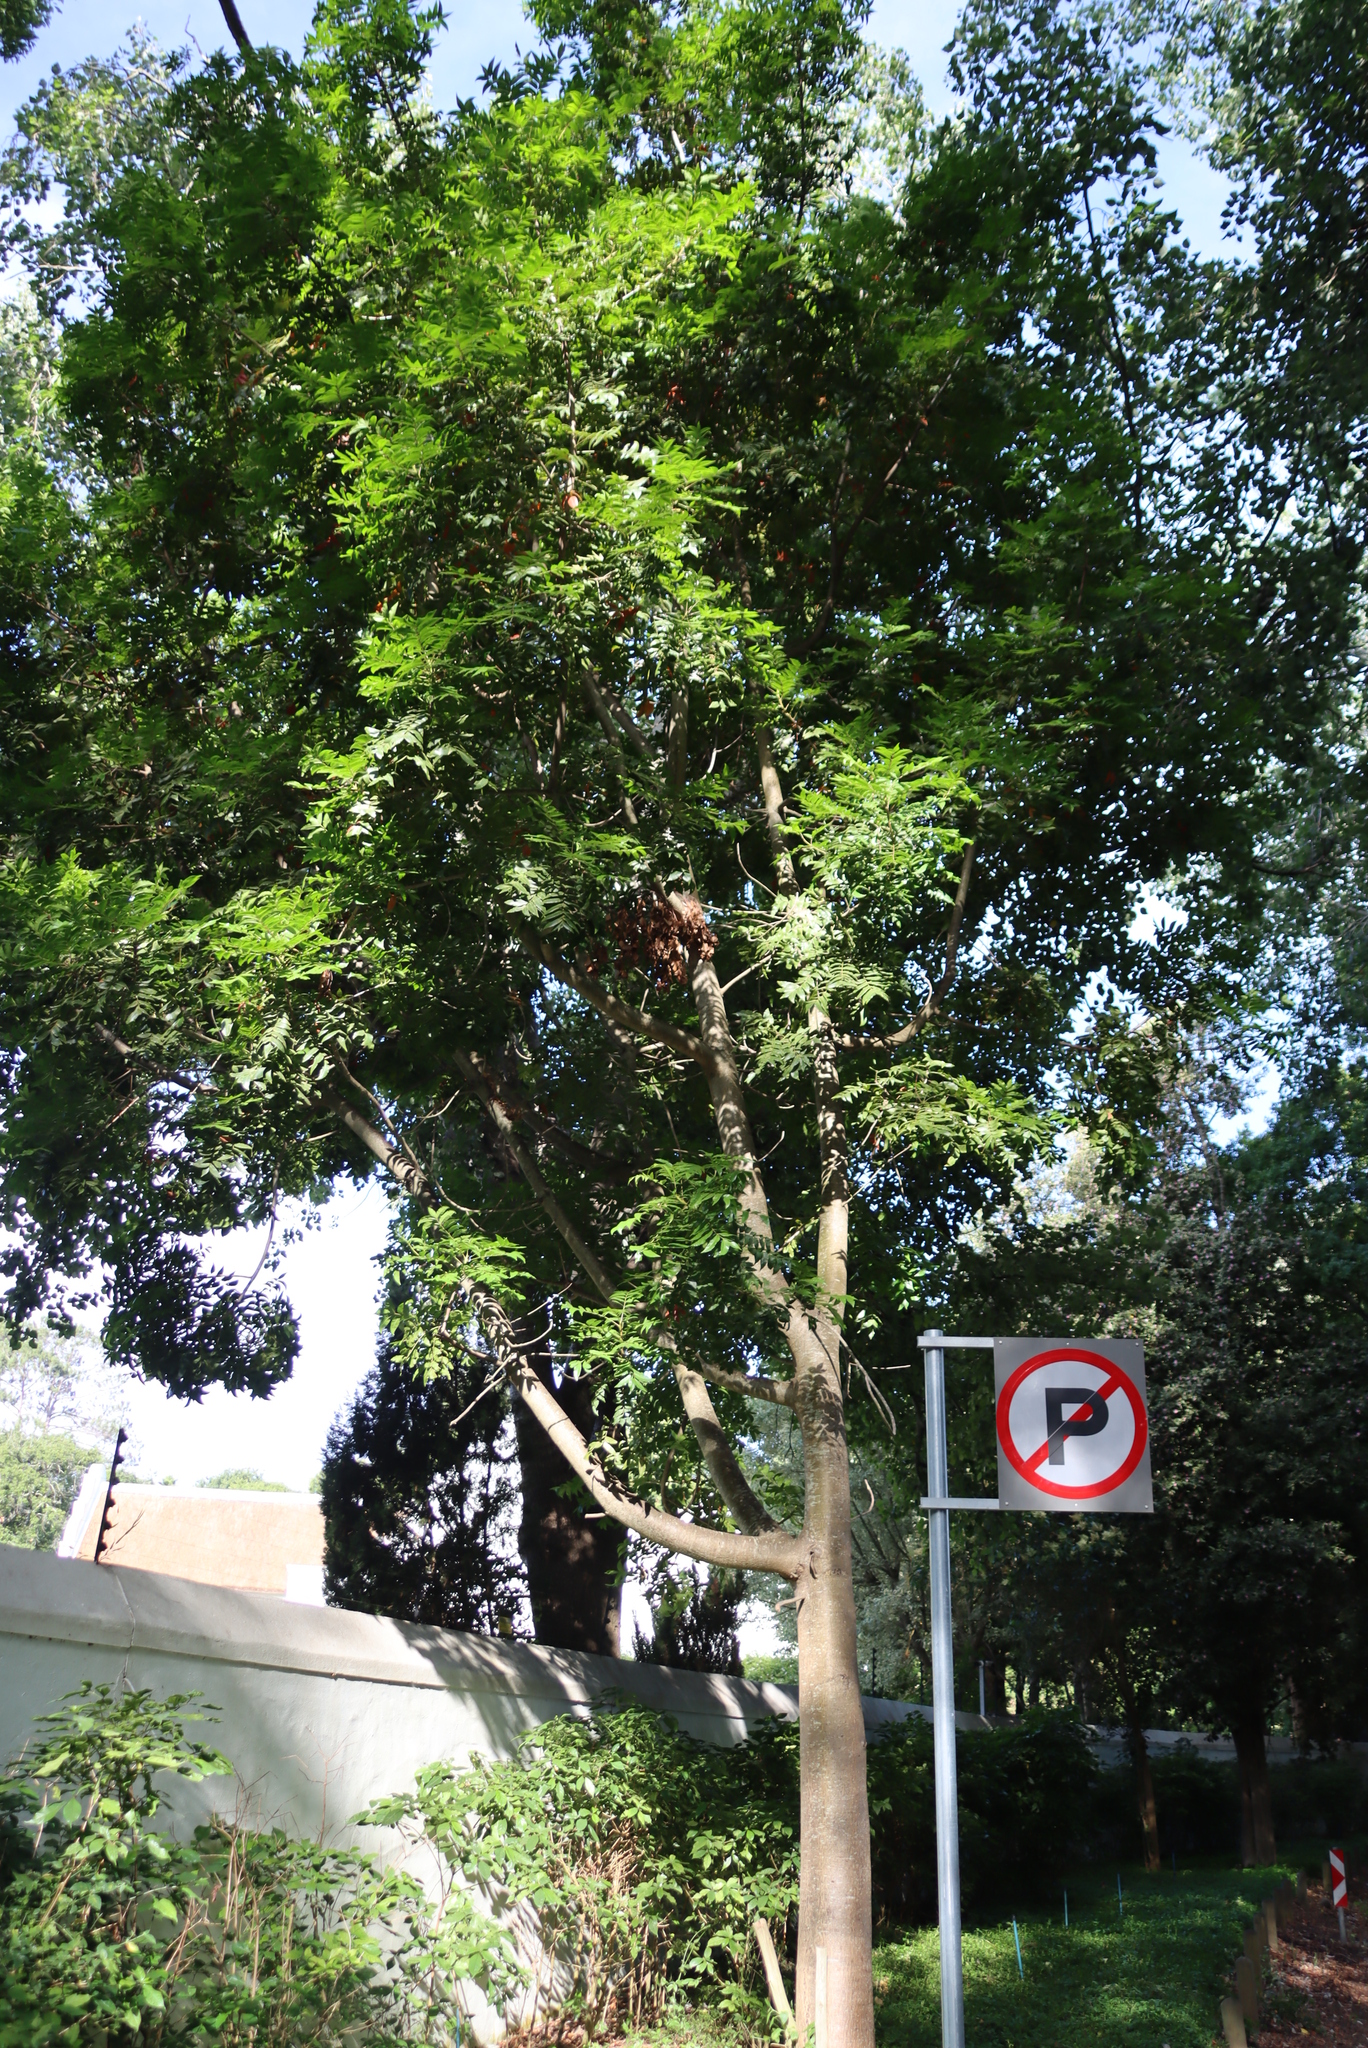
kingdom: Plantae
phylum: Tracheophyta
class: Magnoliopsida
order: Sapindales
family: Anacardiaceae
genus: Harpephyllum
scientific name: Harpephyllum caffrum
